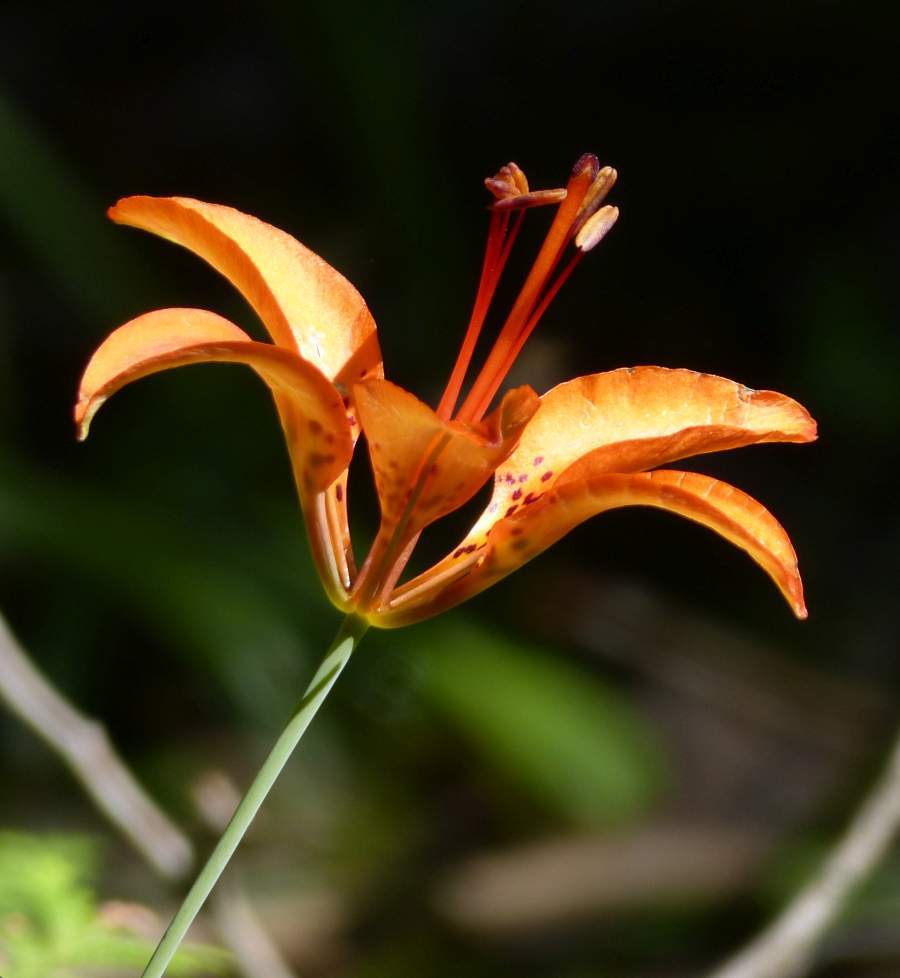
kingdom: Plantae
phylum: Tracheophyta
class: Liliopsida
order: Liliales
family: Liliaceae
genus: Lilium
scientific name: Lilium philadelphicum
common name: Red lily
